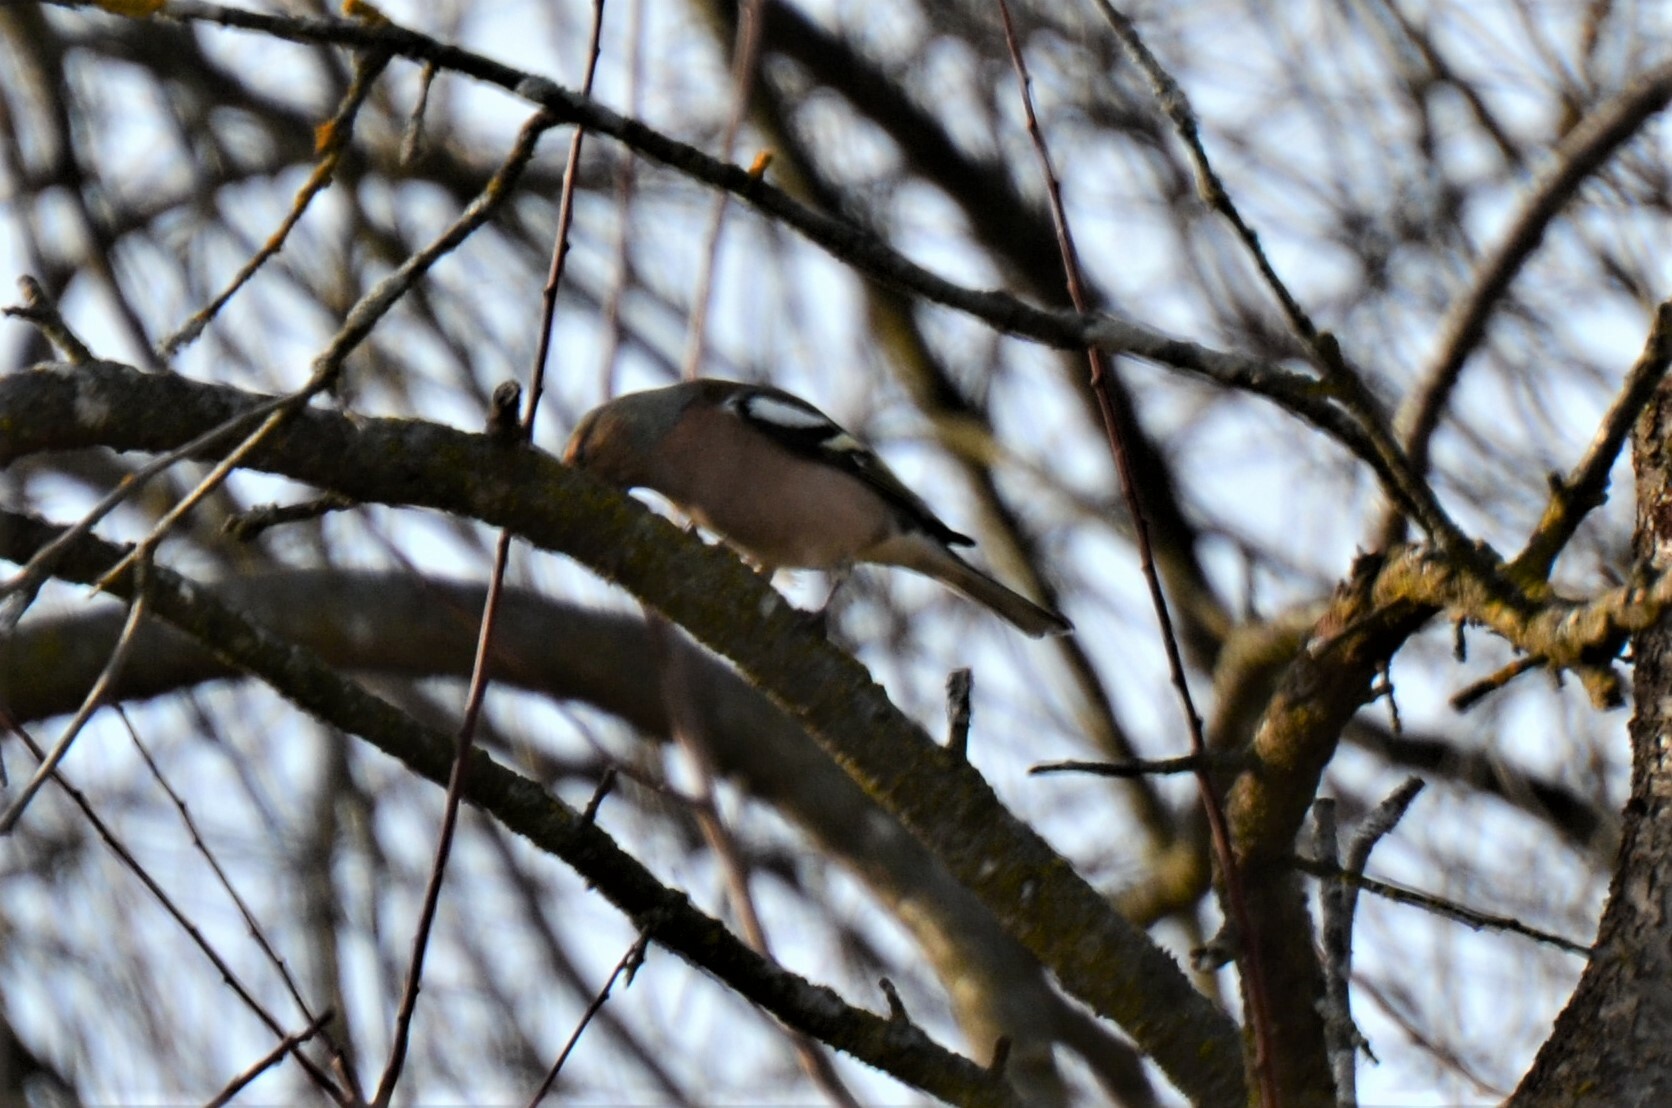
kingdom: Animalia
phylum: Chordata
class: Aves
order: Passeriformes
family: Fringillidae
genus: Fringilla
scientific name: Fringilla coelebs
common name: Common chaffinch
